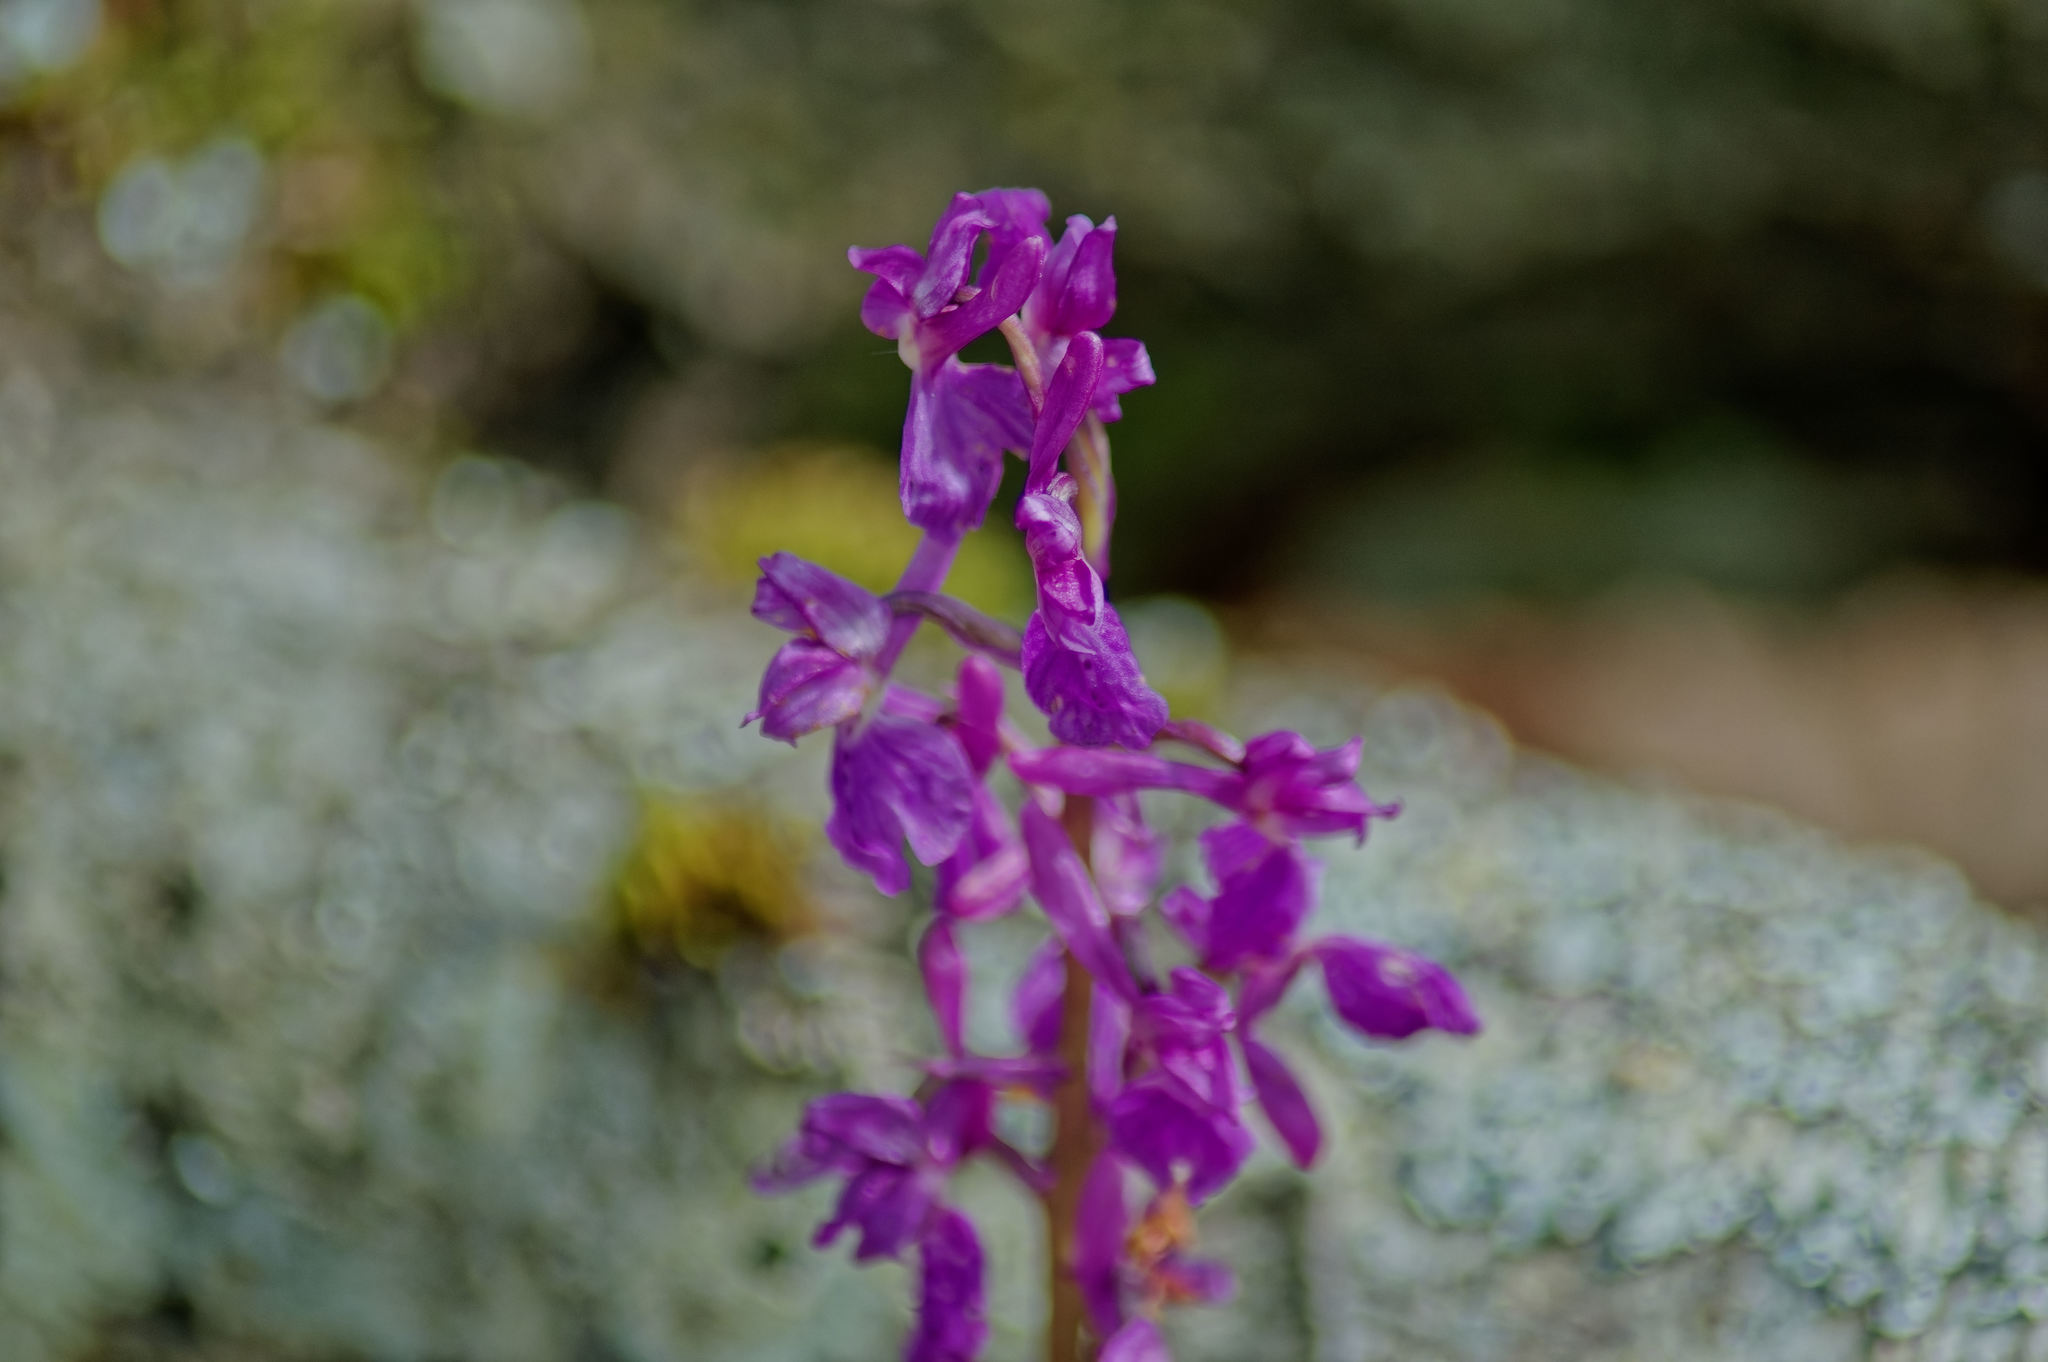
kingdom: Plantae
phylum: Tracheophyta
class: Liliopsida
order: Asparagales
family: Orchidaceae
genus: Orchis
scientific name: Orchis mascula
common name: Early-purple orchid
